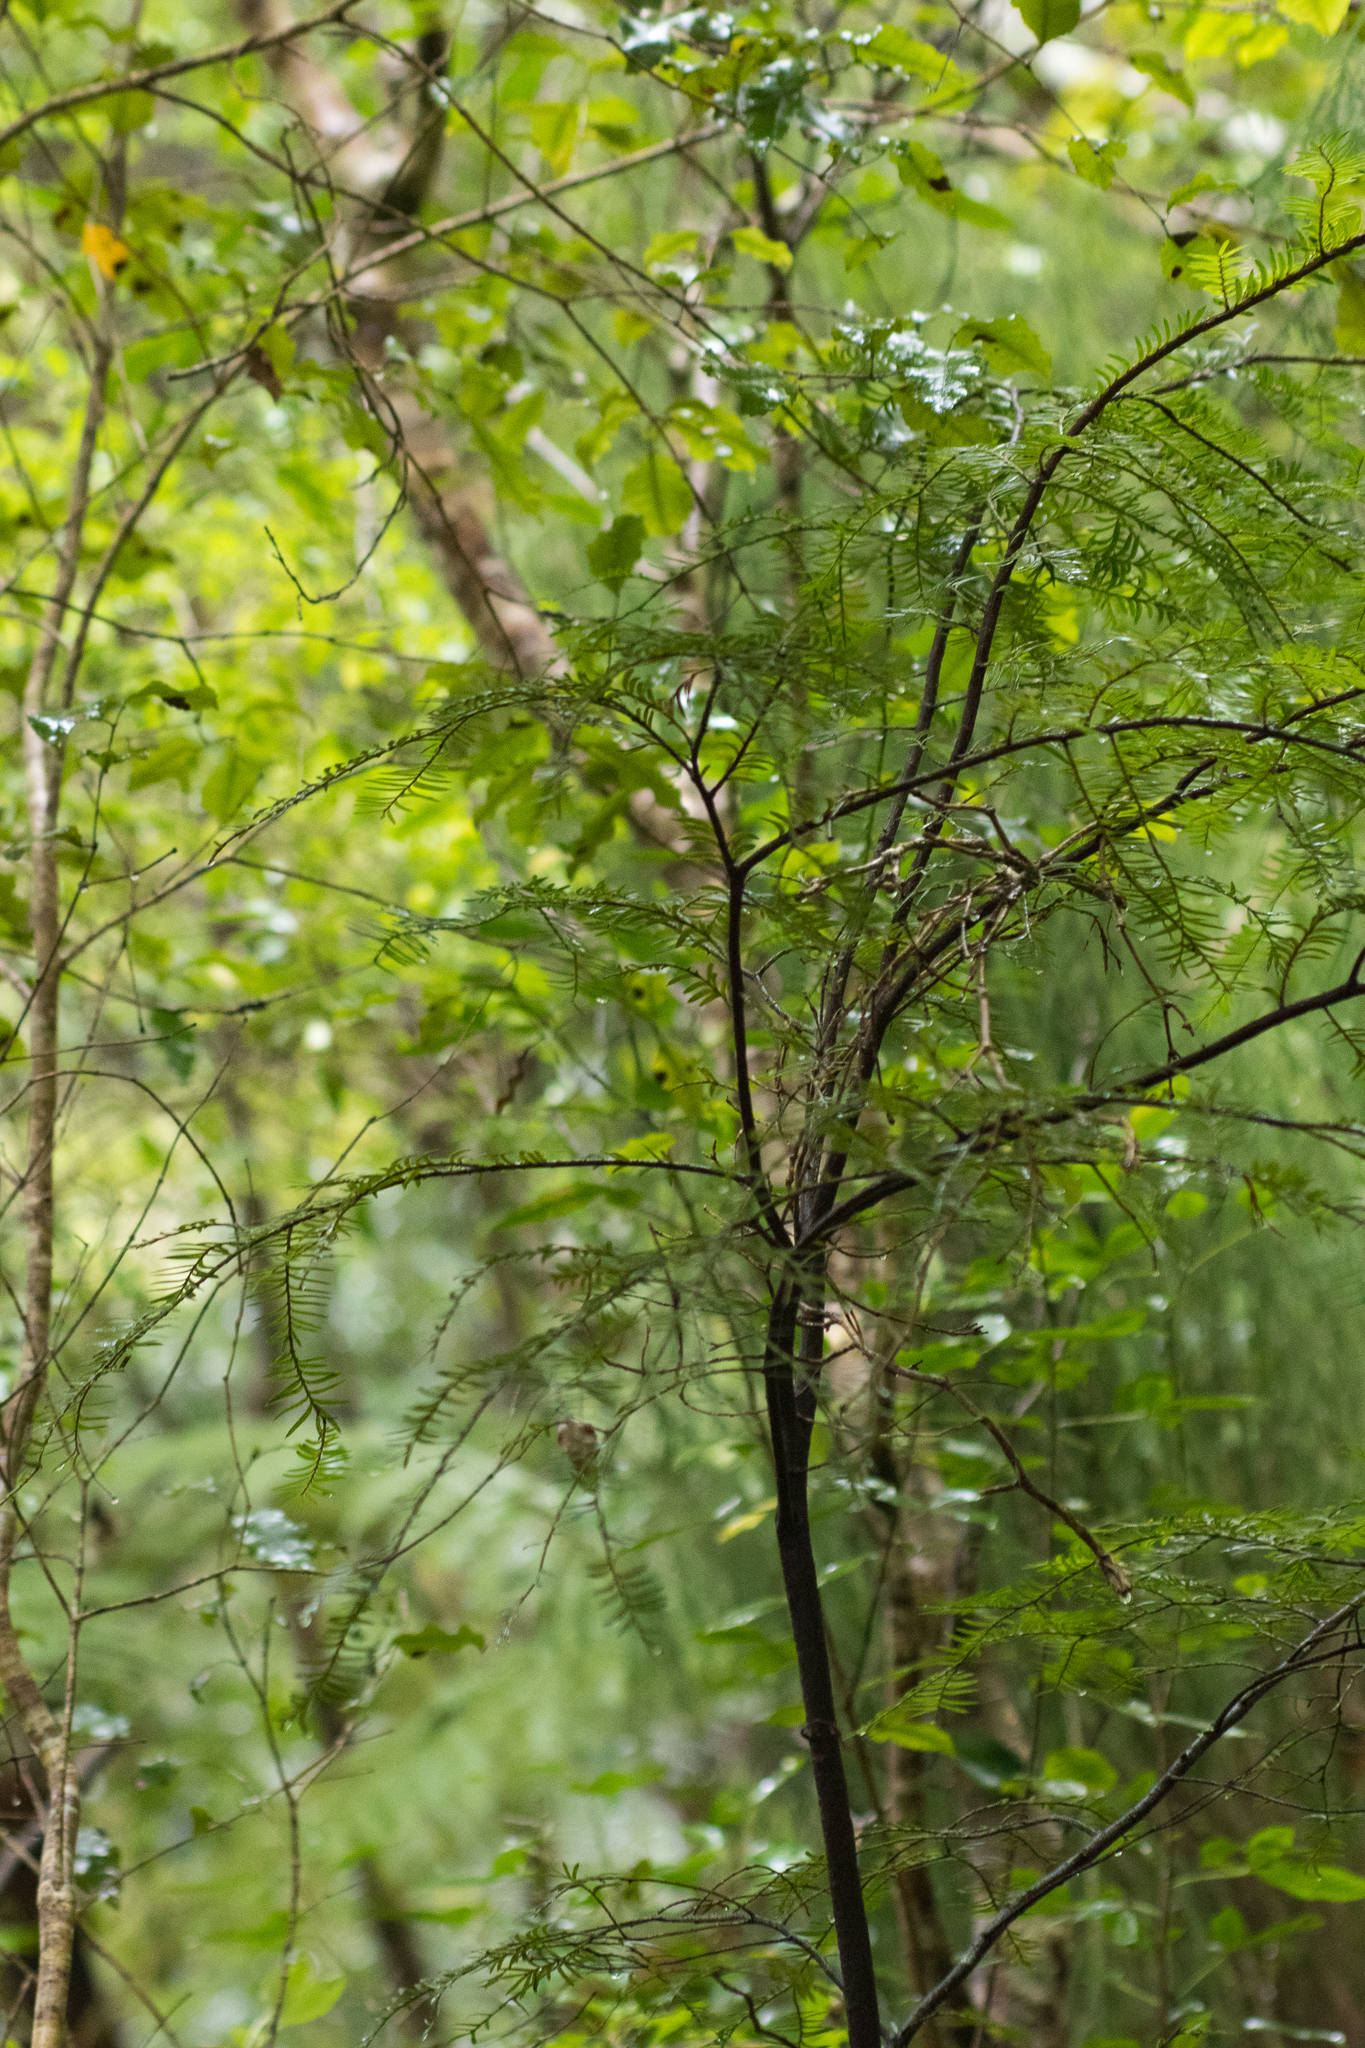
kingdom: Plantae
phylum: Tracheophyta
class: Pinopsida
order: Pinales
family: Podocarpaceae
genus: Prumnopitys
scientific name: Prumnopitys ferruginea
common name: Brown pine
